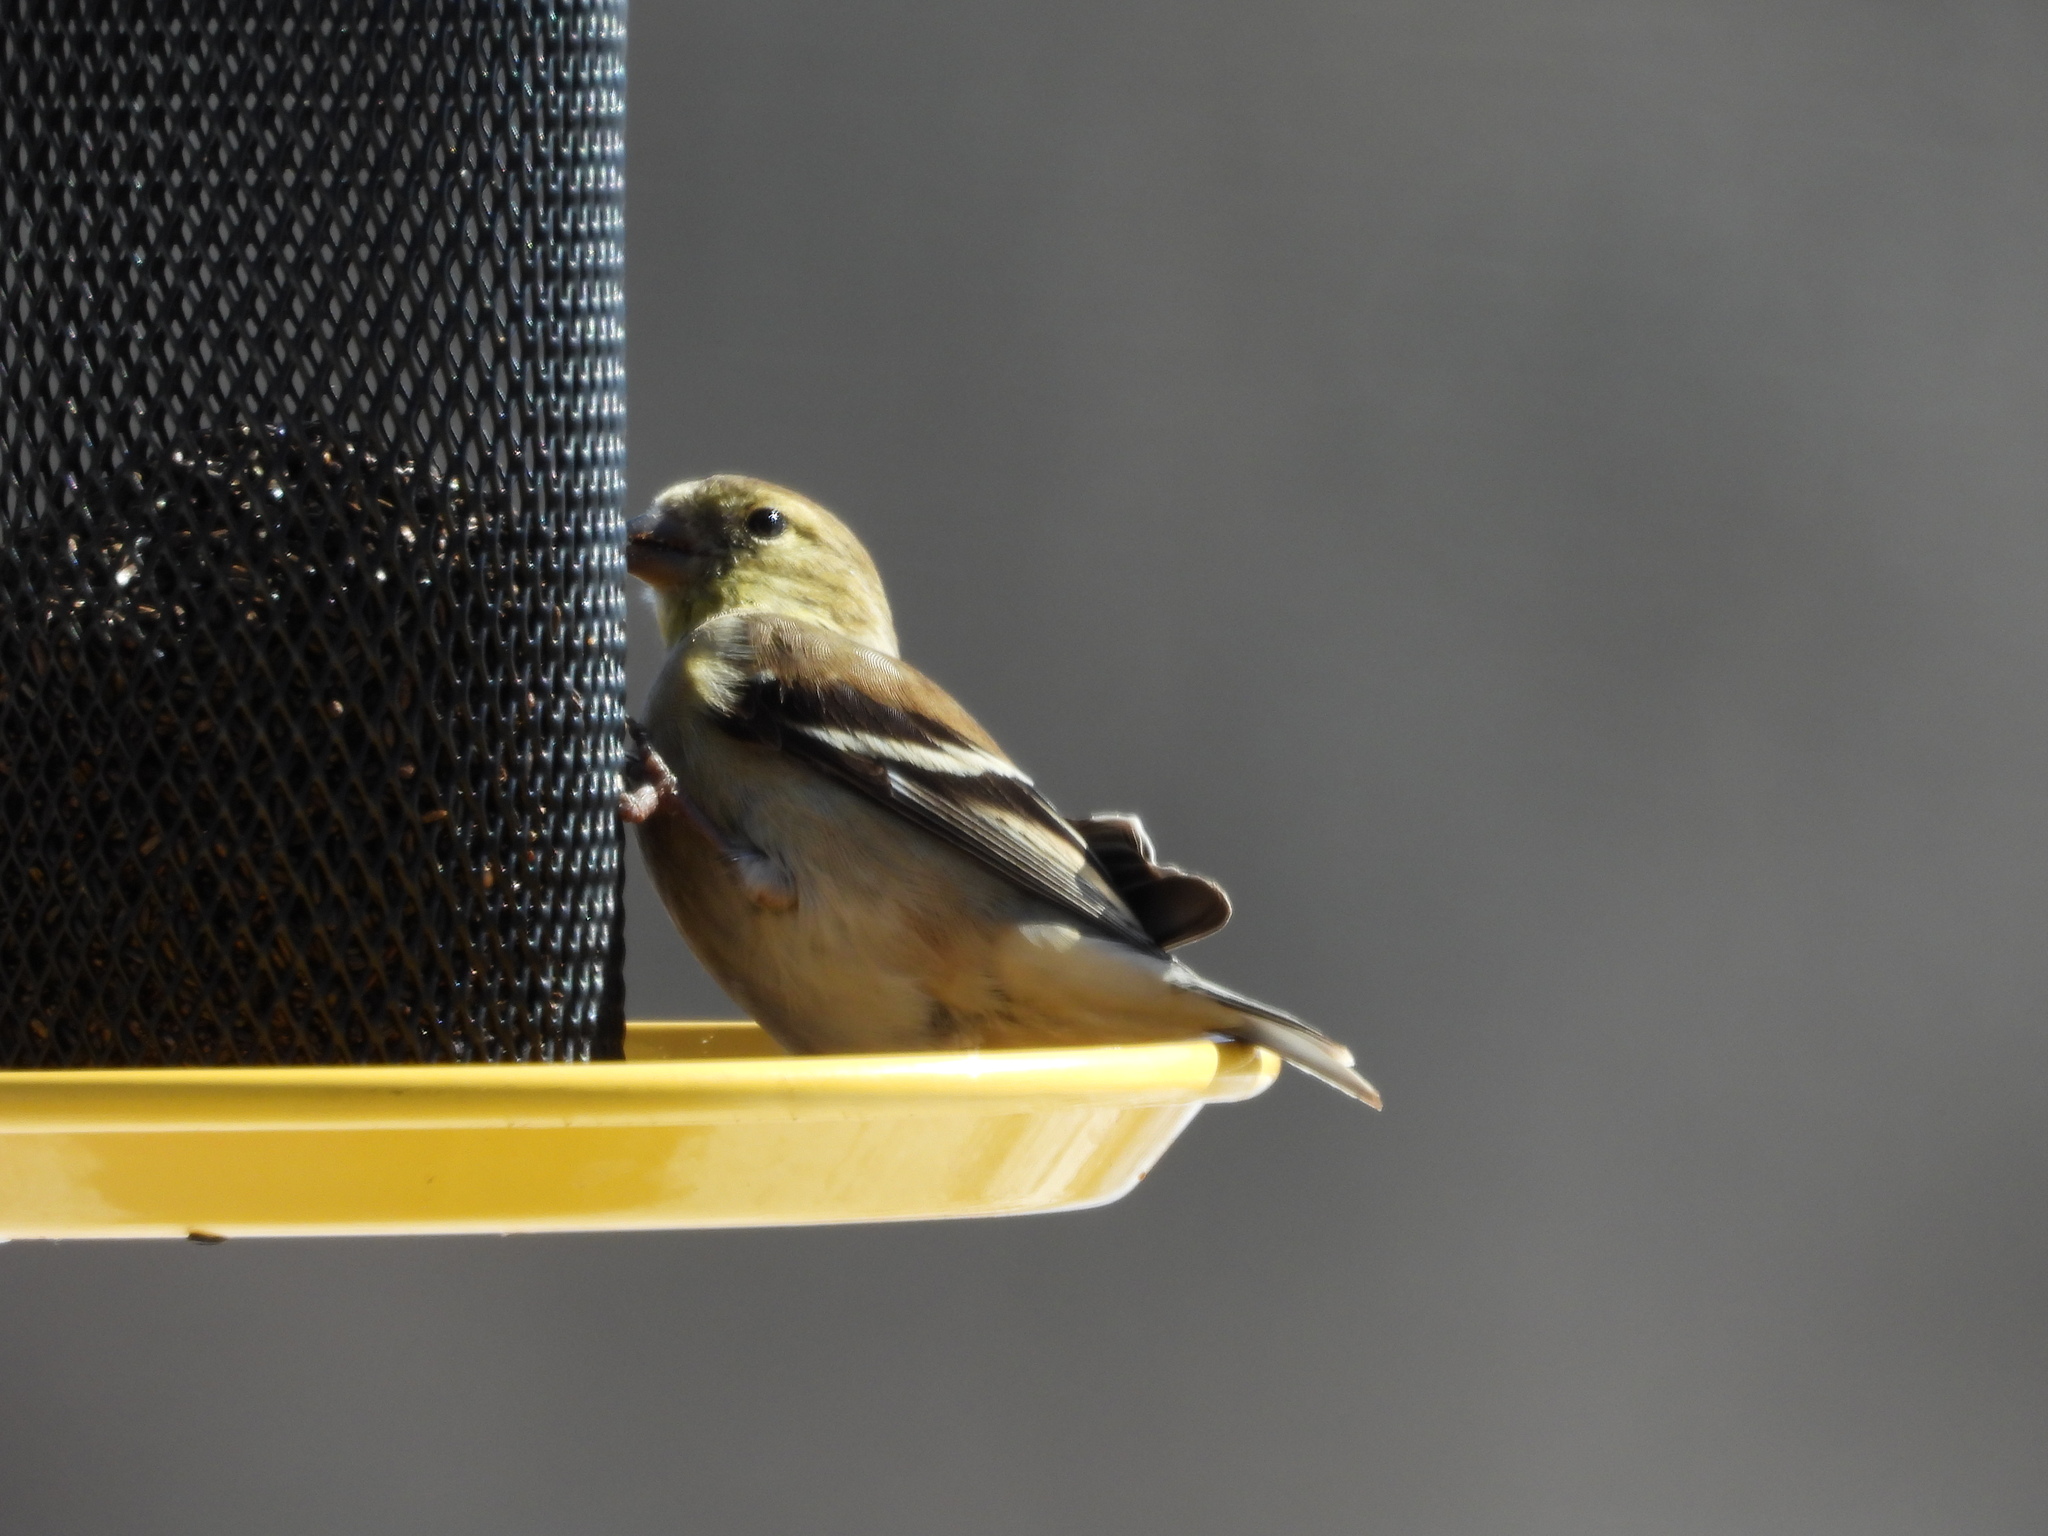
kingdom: Animalia
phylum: Chordata
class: Aves
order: Passeriformes
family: Fringillidae
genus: Spinus
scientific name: Spinus tristis
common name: American goldfinch
